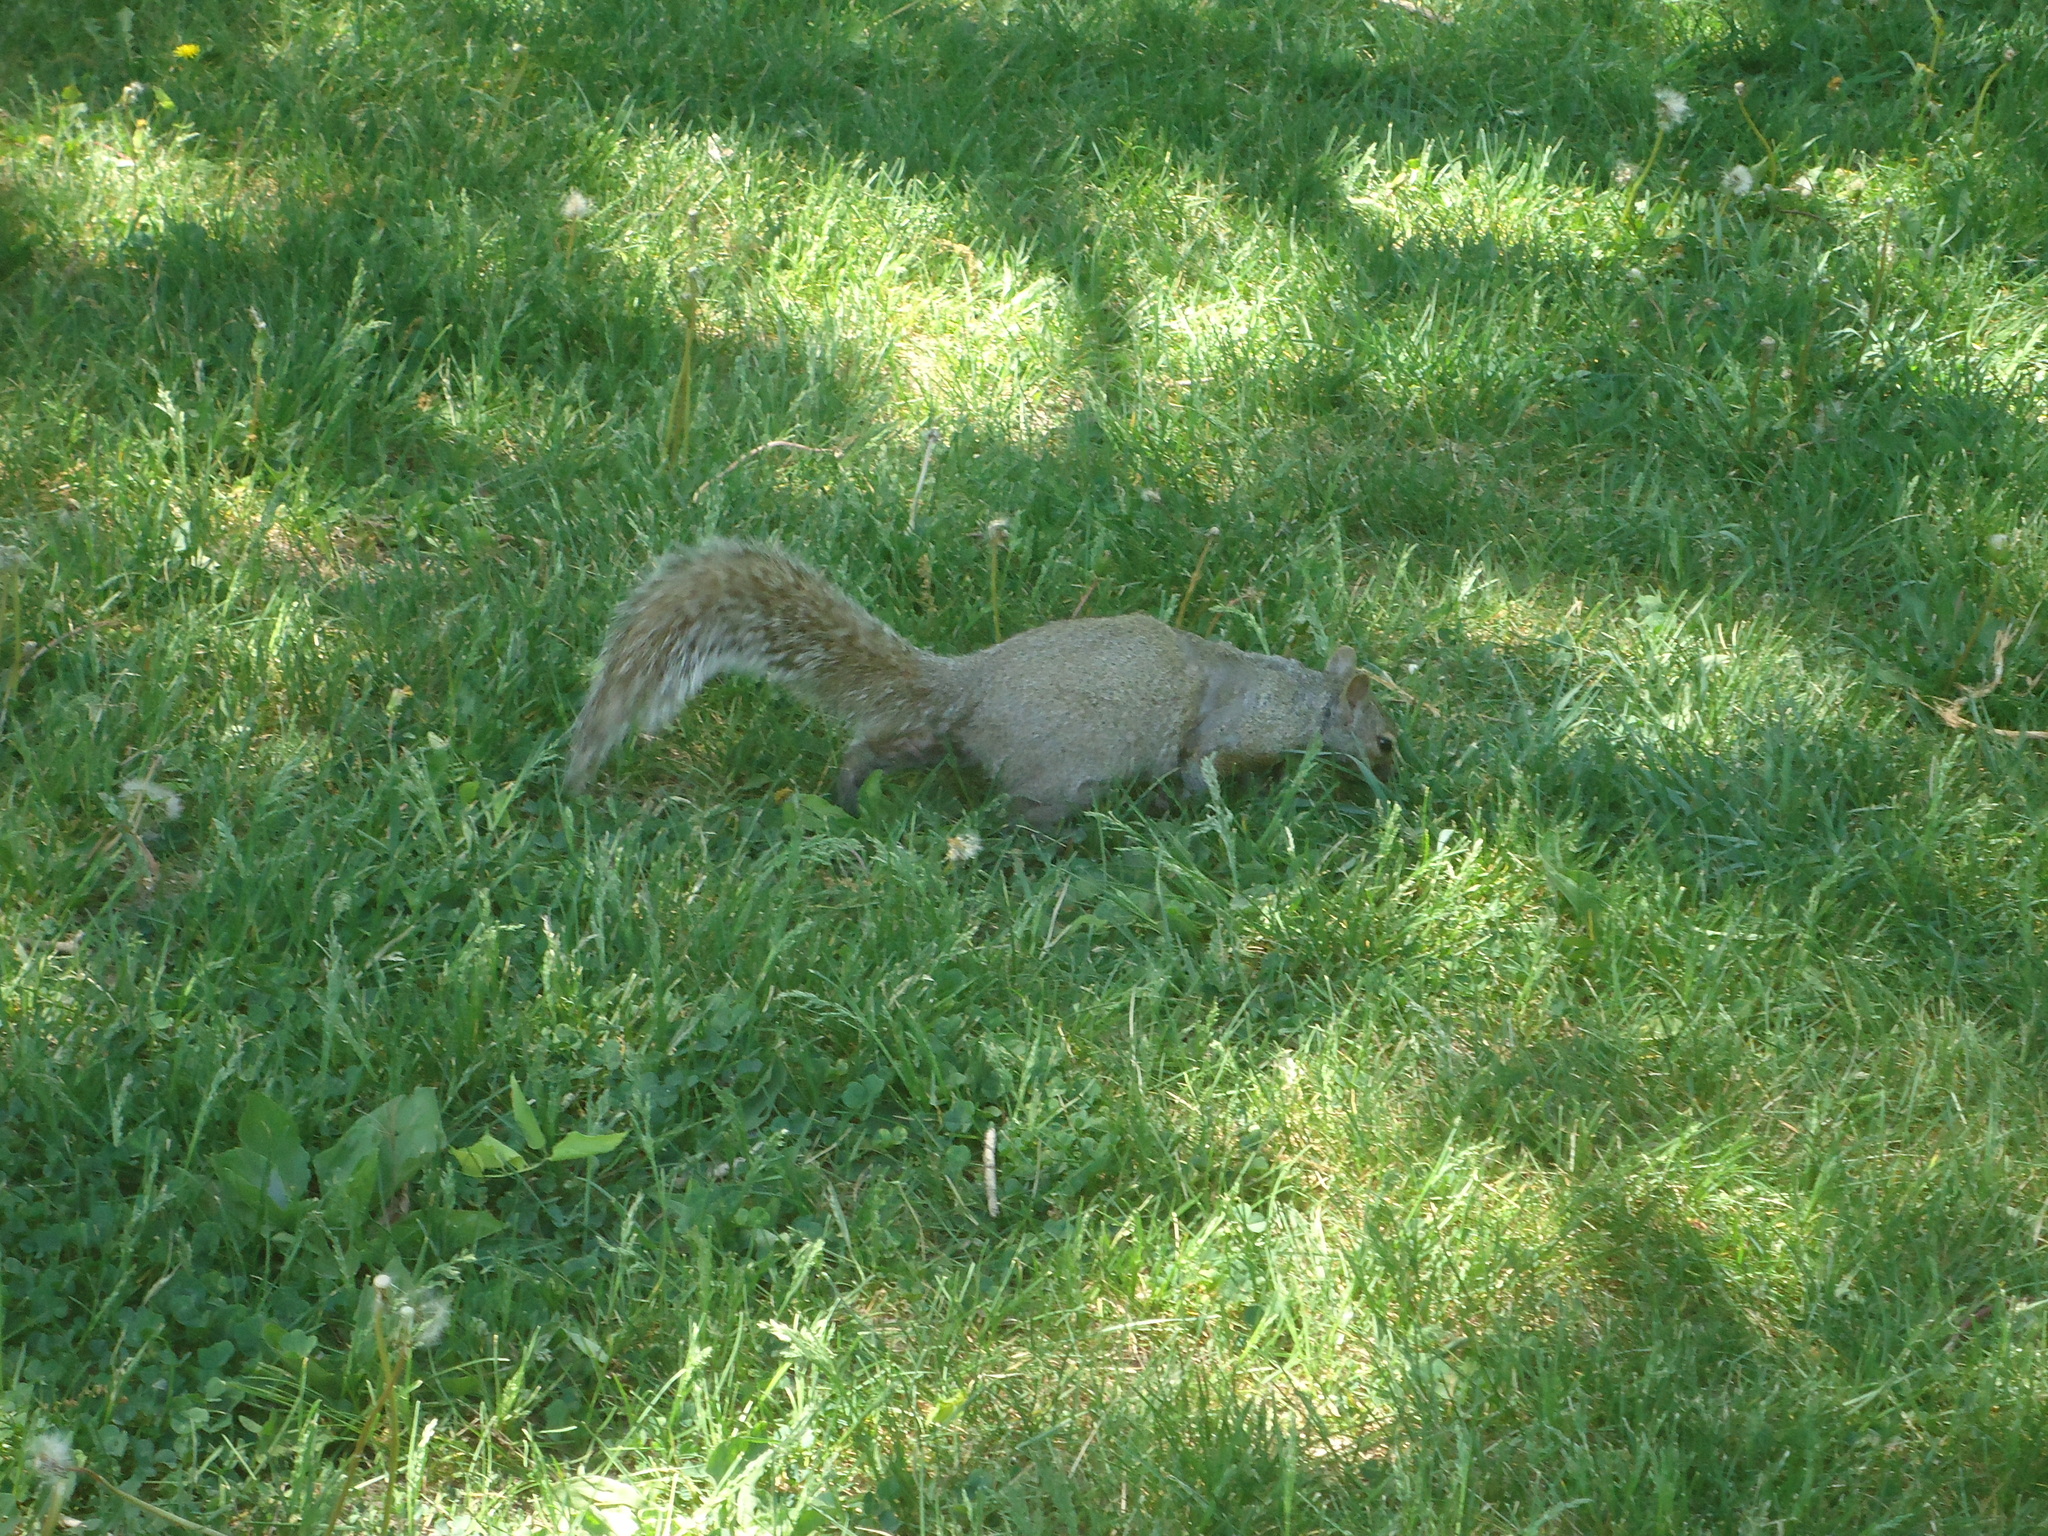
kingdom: Animalia
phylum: Chordata
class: Mammalia
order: Rodentia
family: Sciuridae
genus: Sciurus
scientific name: Sciurus carolinensis
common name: Eastern gray squirrel
